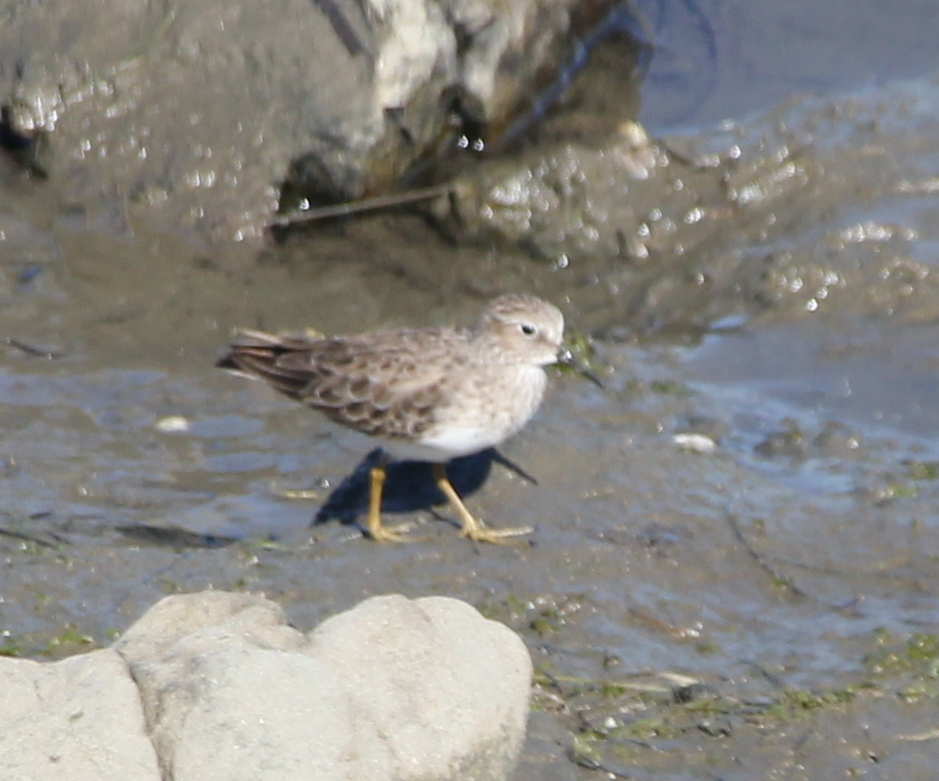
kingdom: Animalia
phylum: Chordata
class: Aves
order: Charadriiformes
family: Scolopacidae
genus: Calidris
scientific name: Calidris minutilla
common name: Least sandpiper
